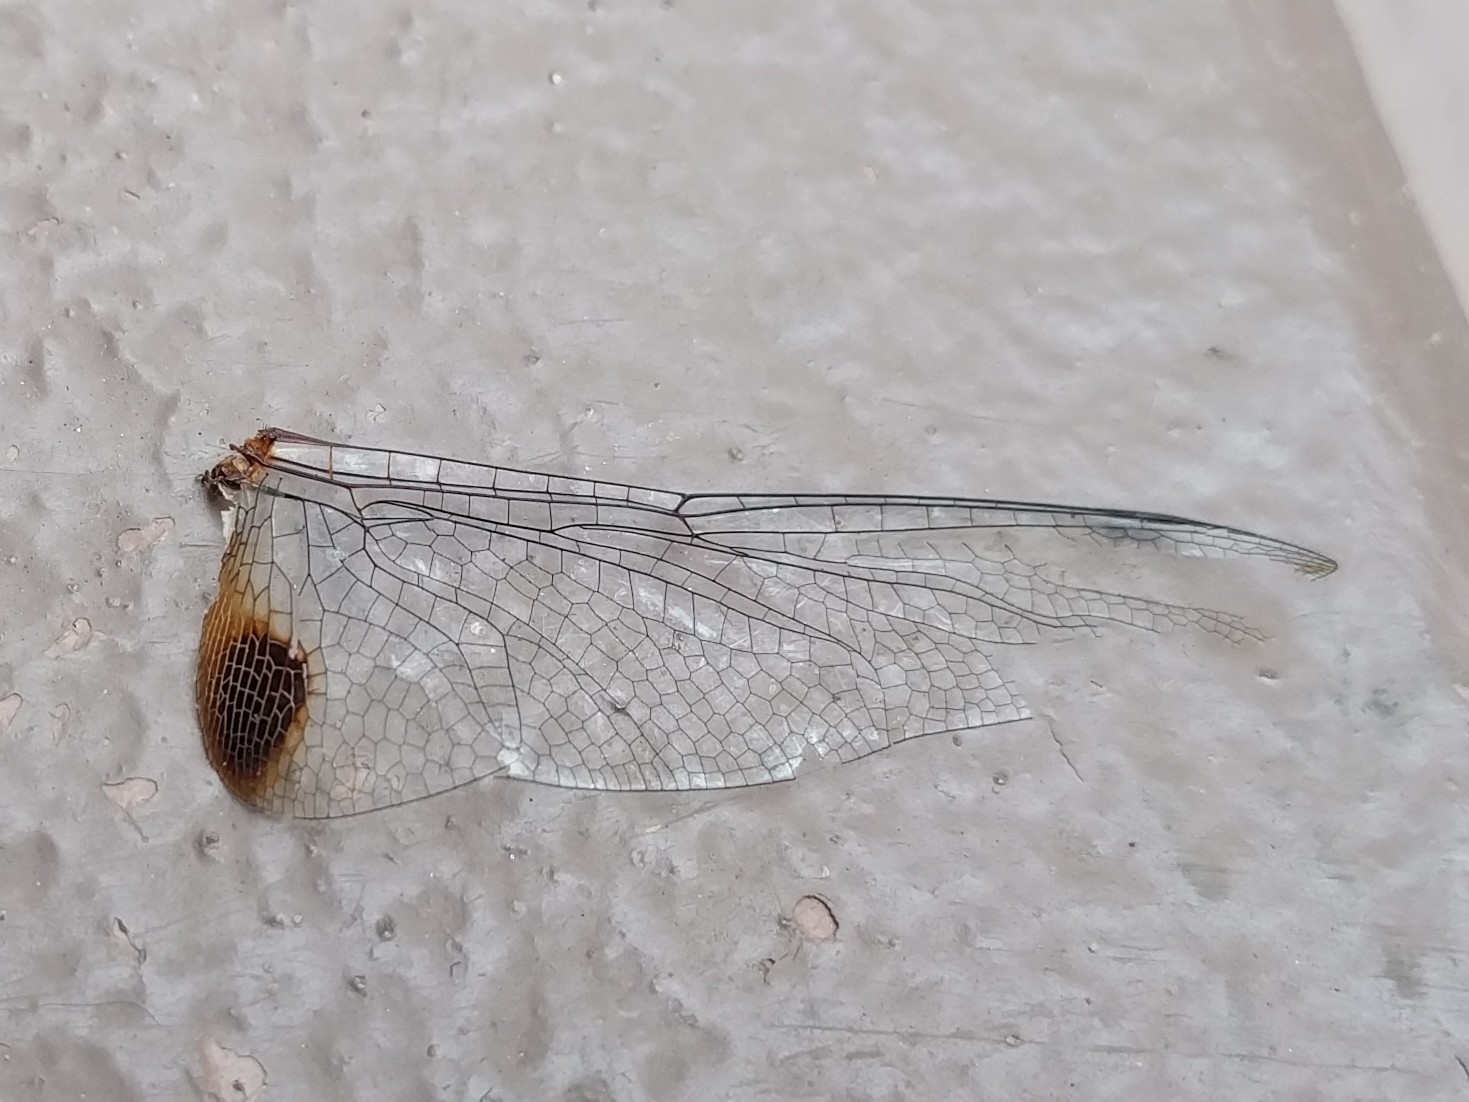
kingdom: Animalia
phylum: Arthropoda
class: Insecta
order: Odonata
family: Libellulidae
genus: Pantala
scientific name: Pantala hymenaea
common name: Spot-winged glider
